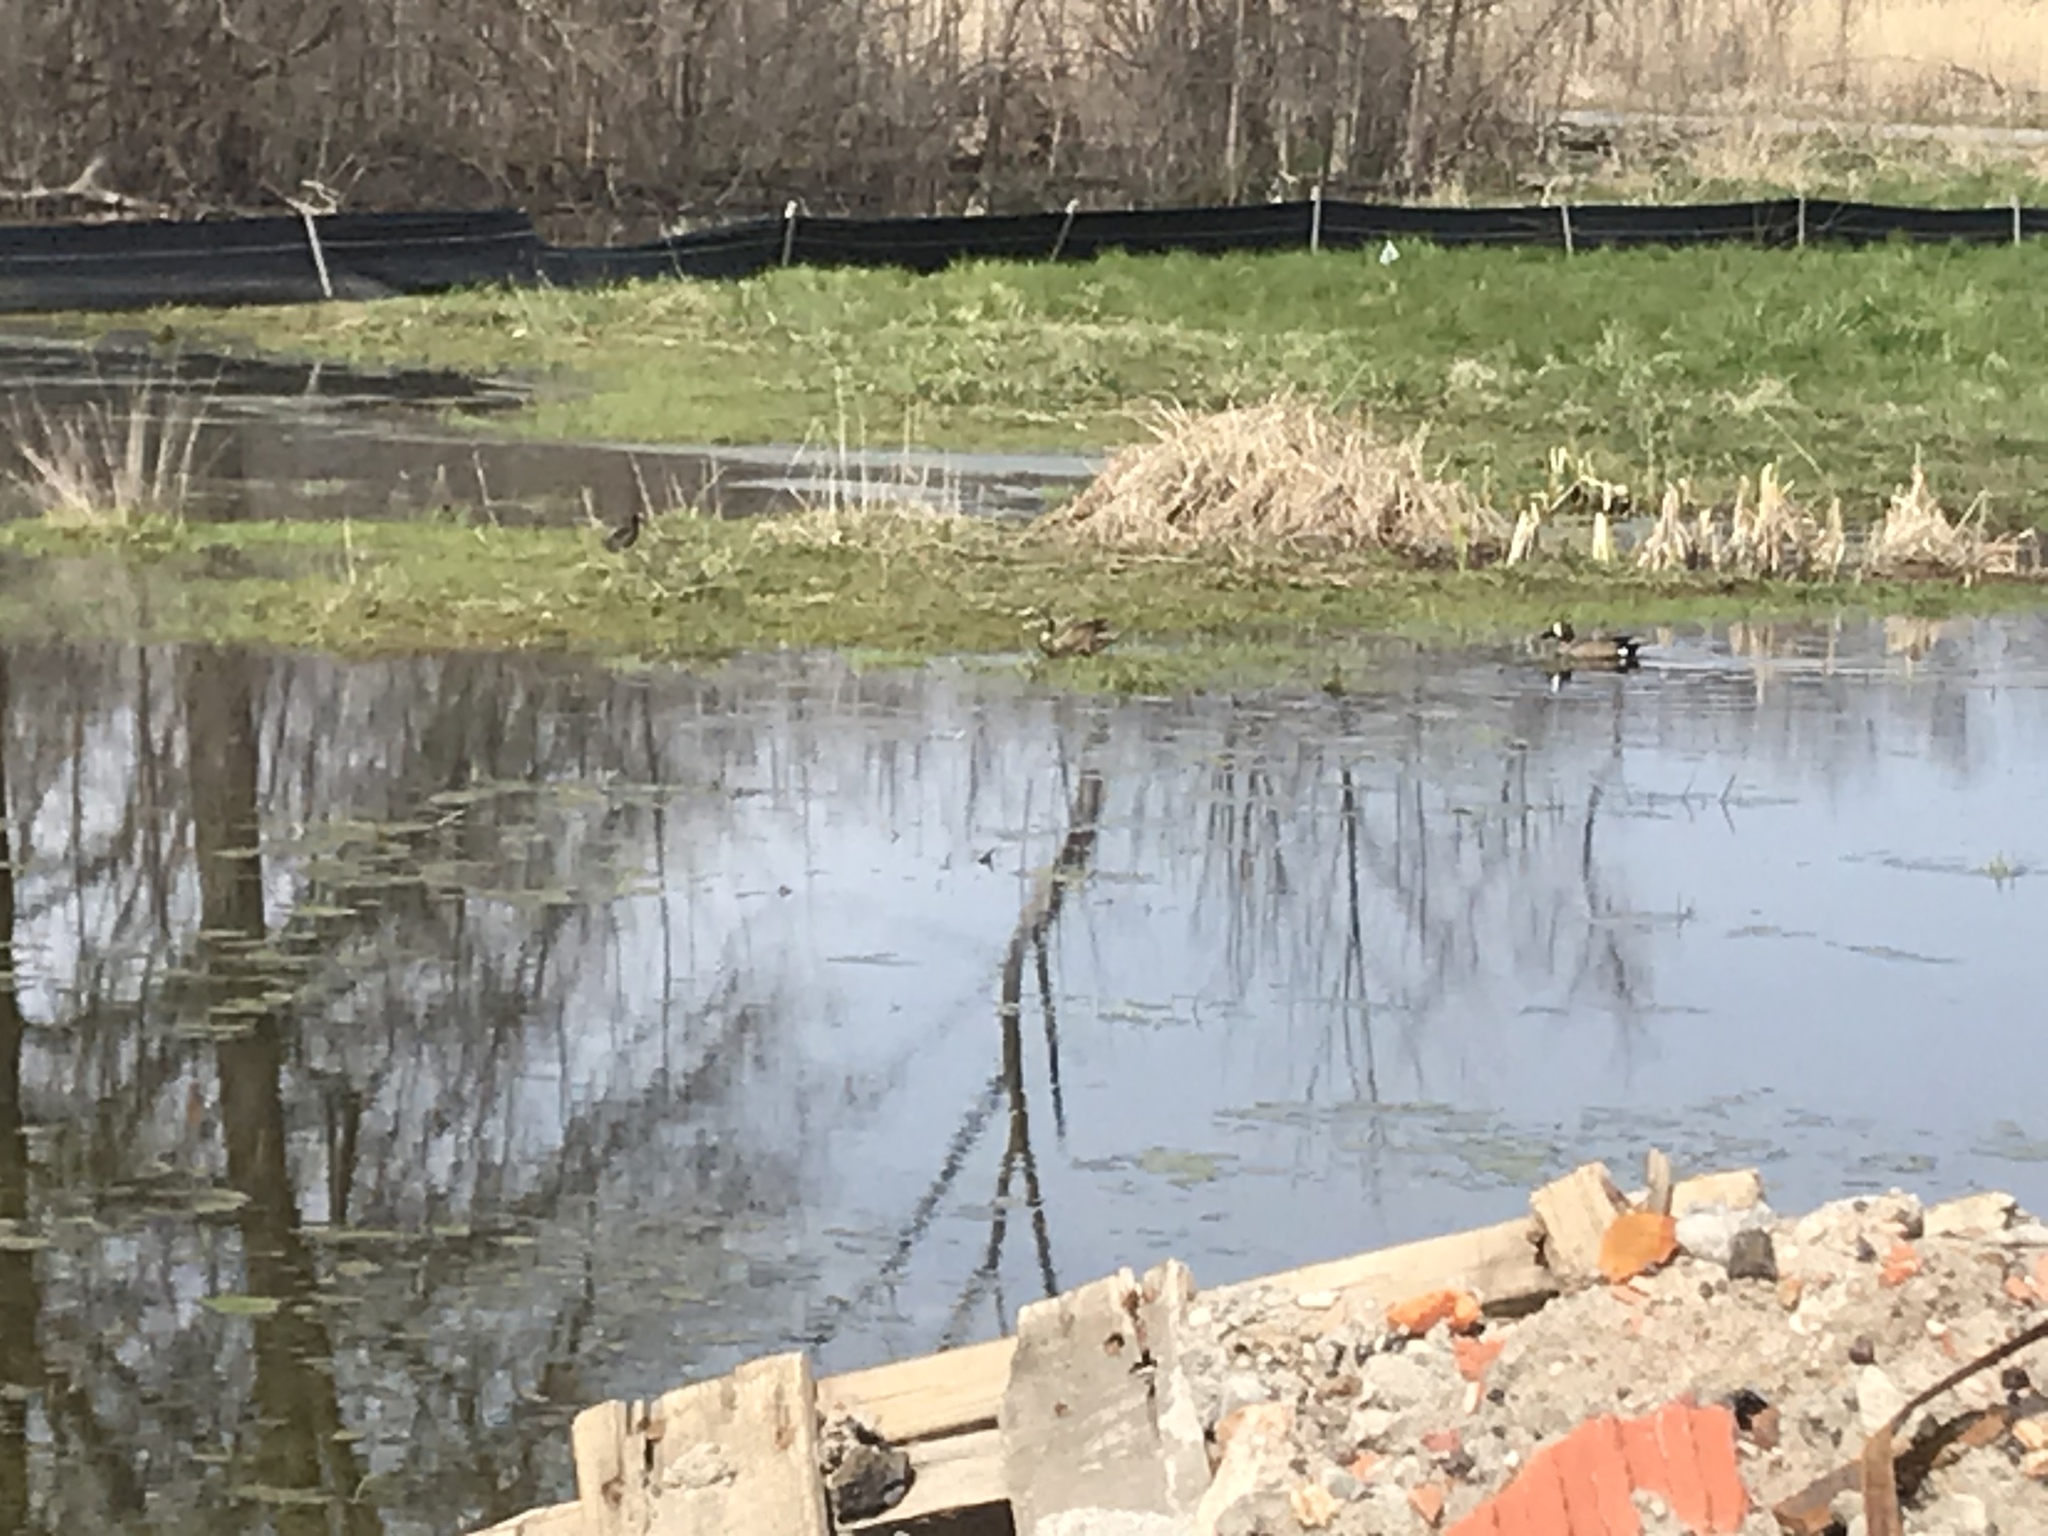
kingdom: Animalia
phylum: Chordata
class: Aves
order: Anseriformes
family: Anatidae
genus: Spatula
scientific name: Spatula discors
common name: Blue-winged teal
